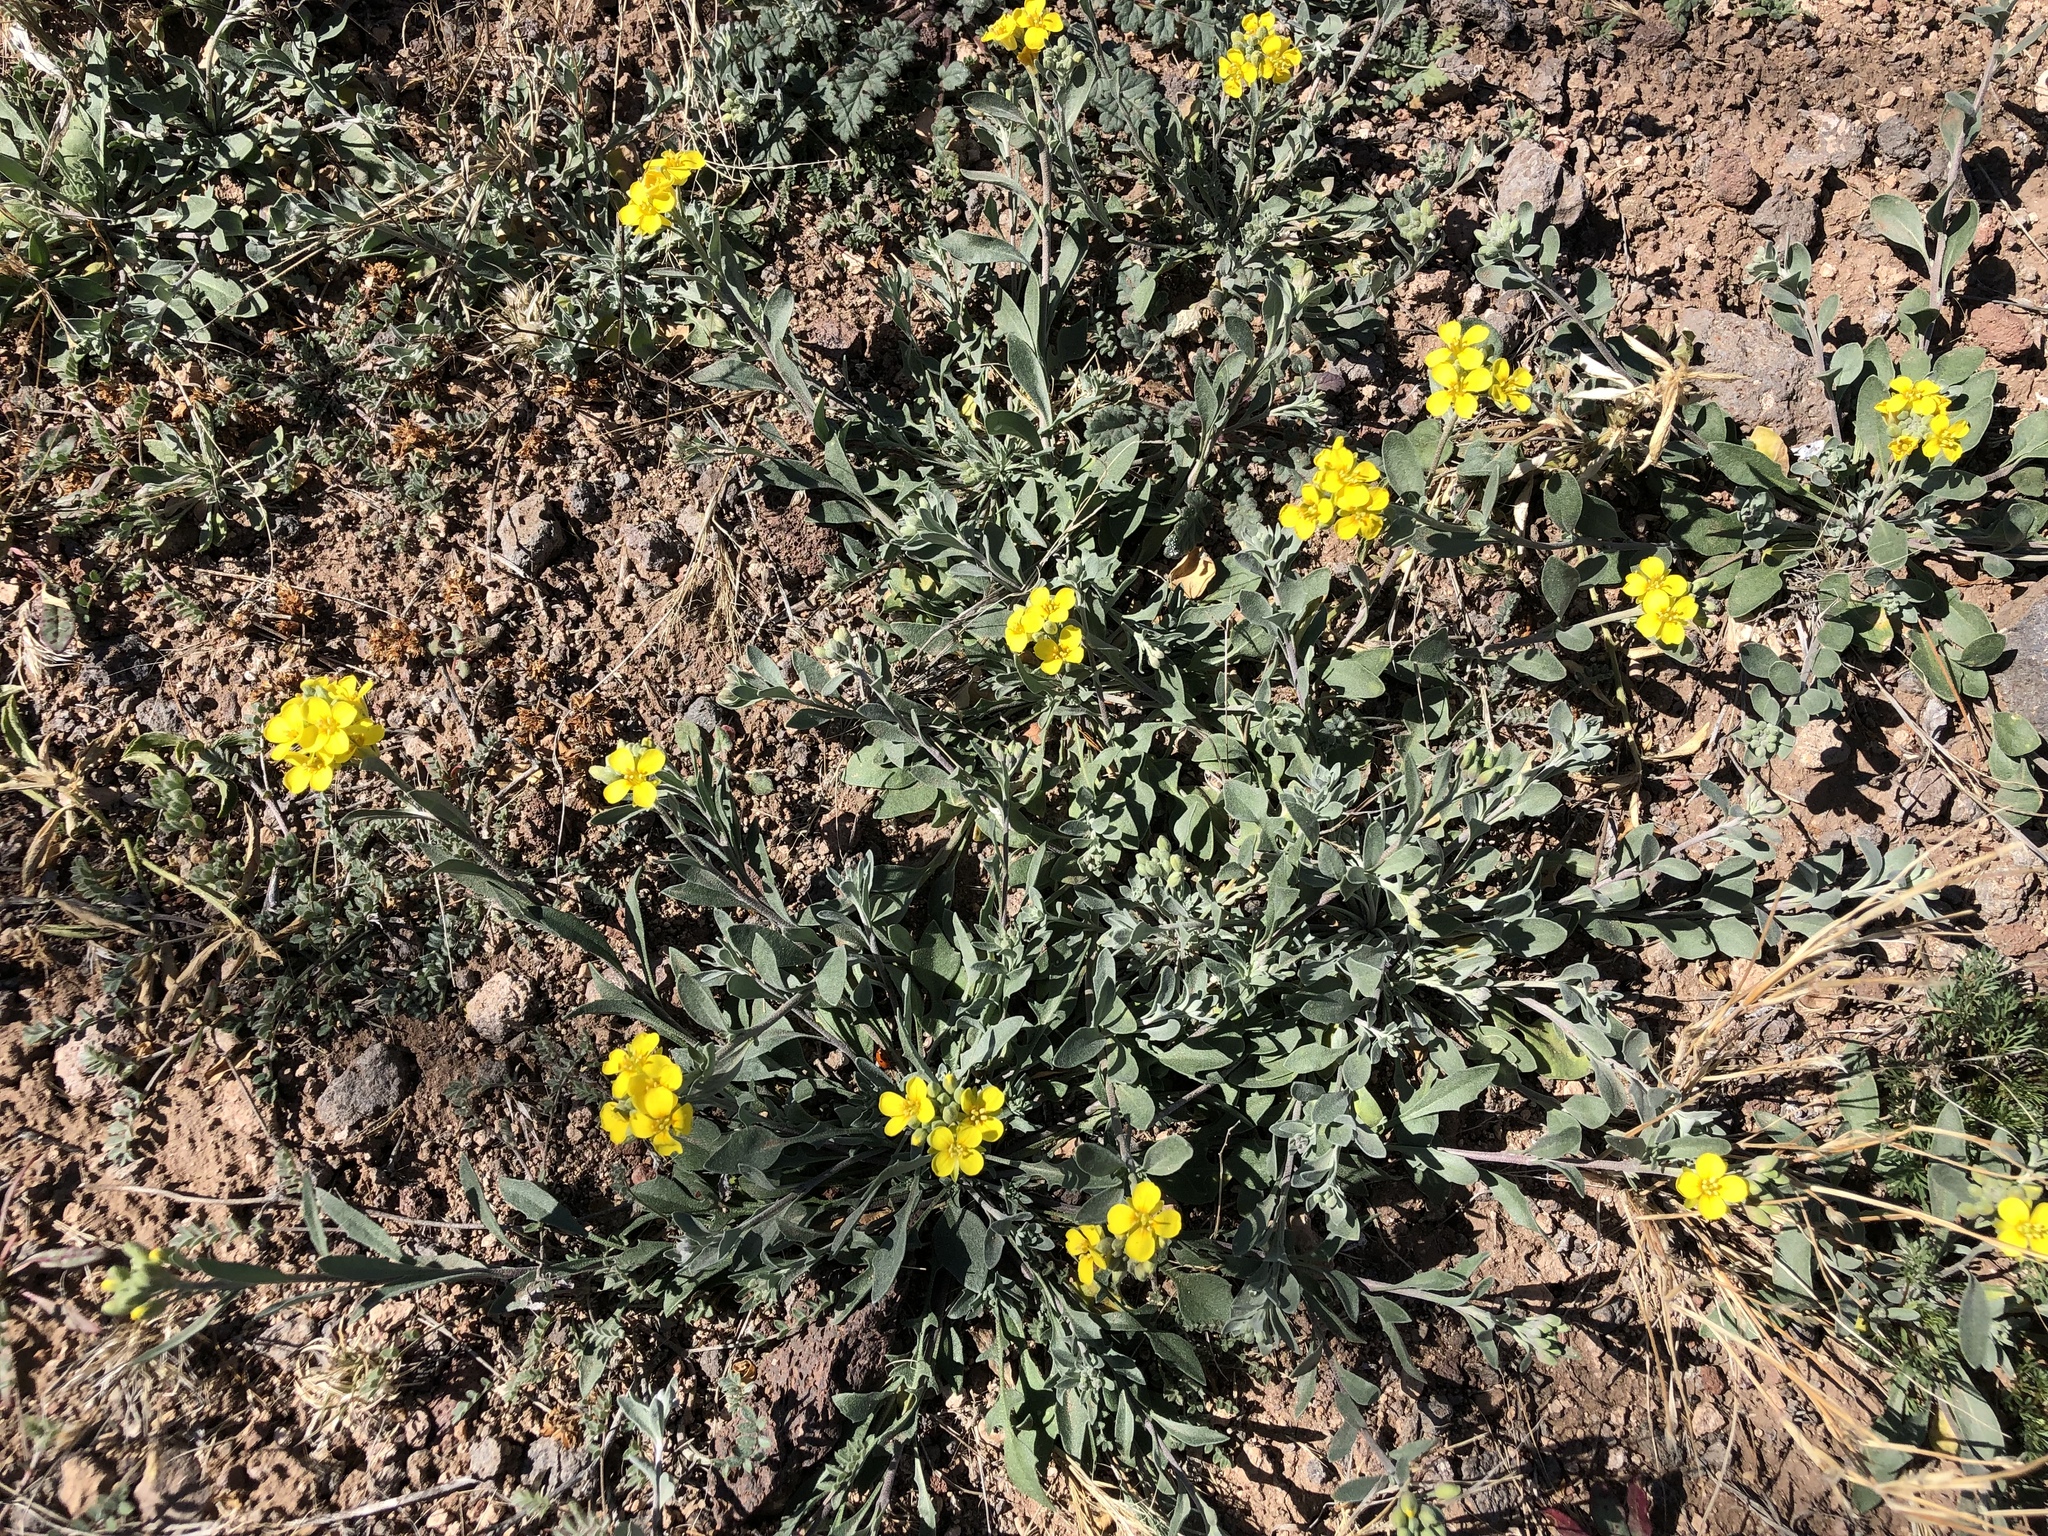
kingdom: Plantae
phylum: Tracheophyta
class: Magnoliopsida
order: Brassicales
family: Brassicaceae
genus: Physaria
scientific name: Physaria gordonii
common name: Gordon's bladderpod
